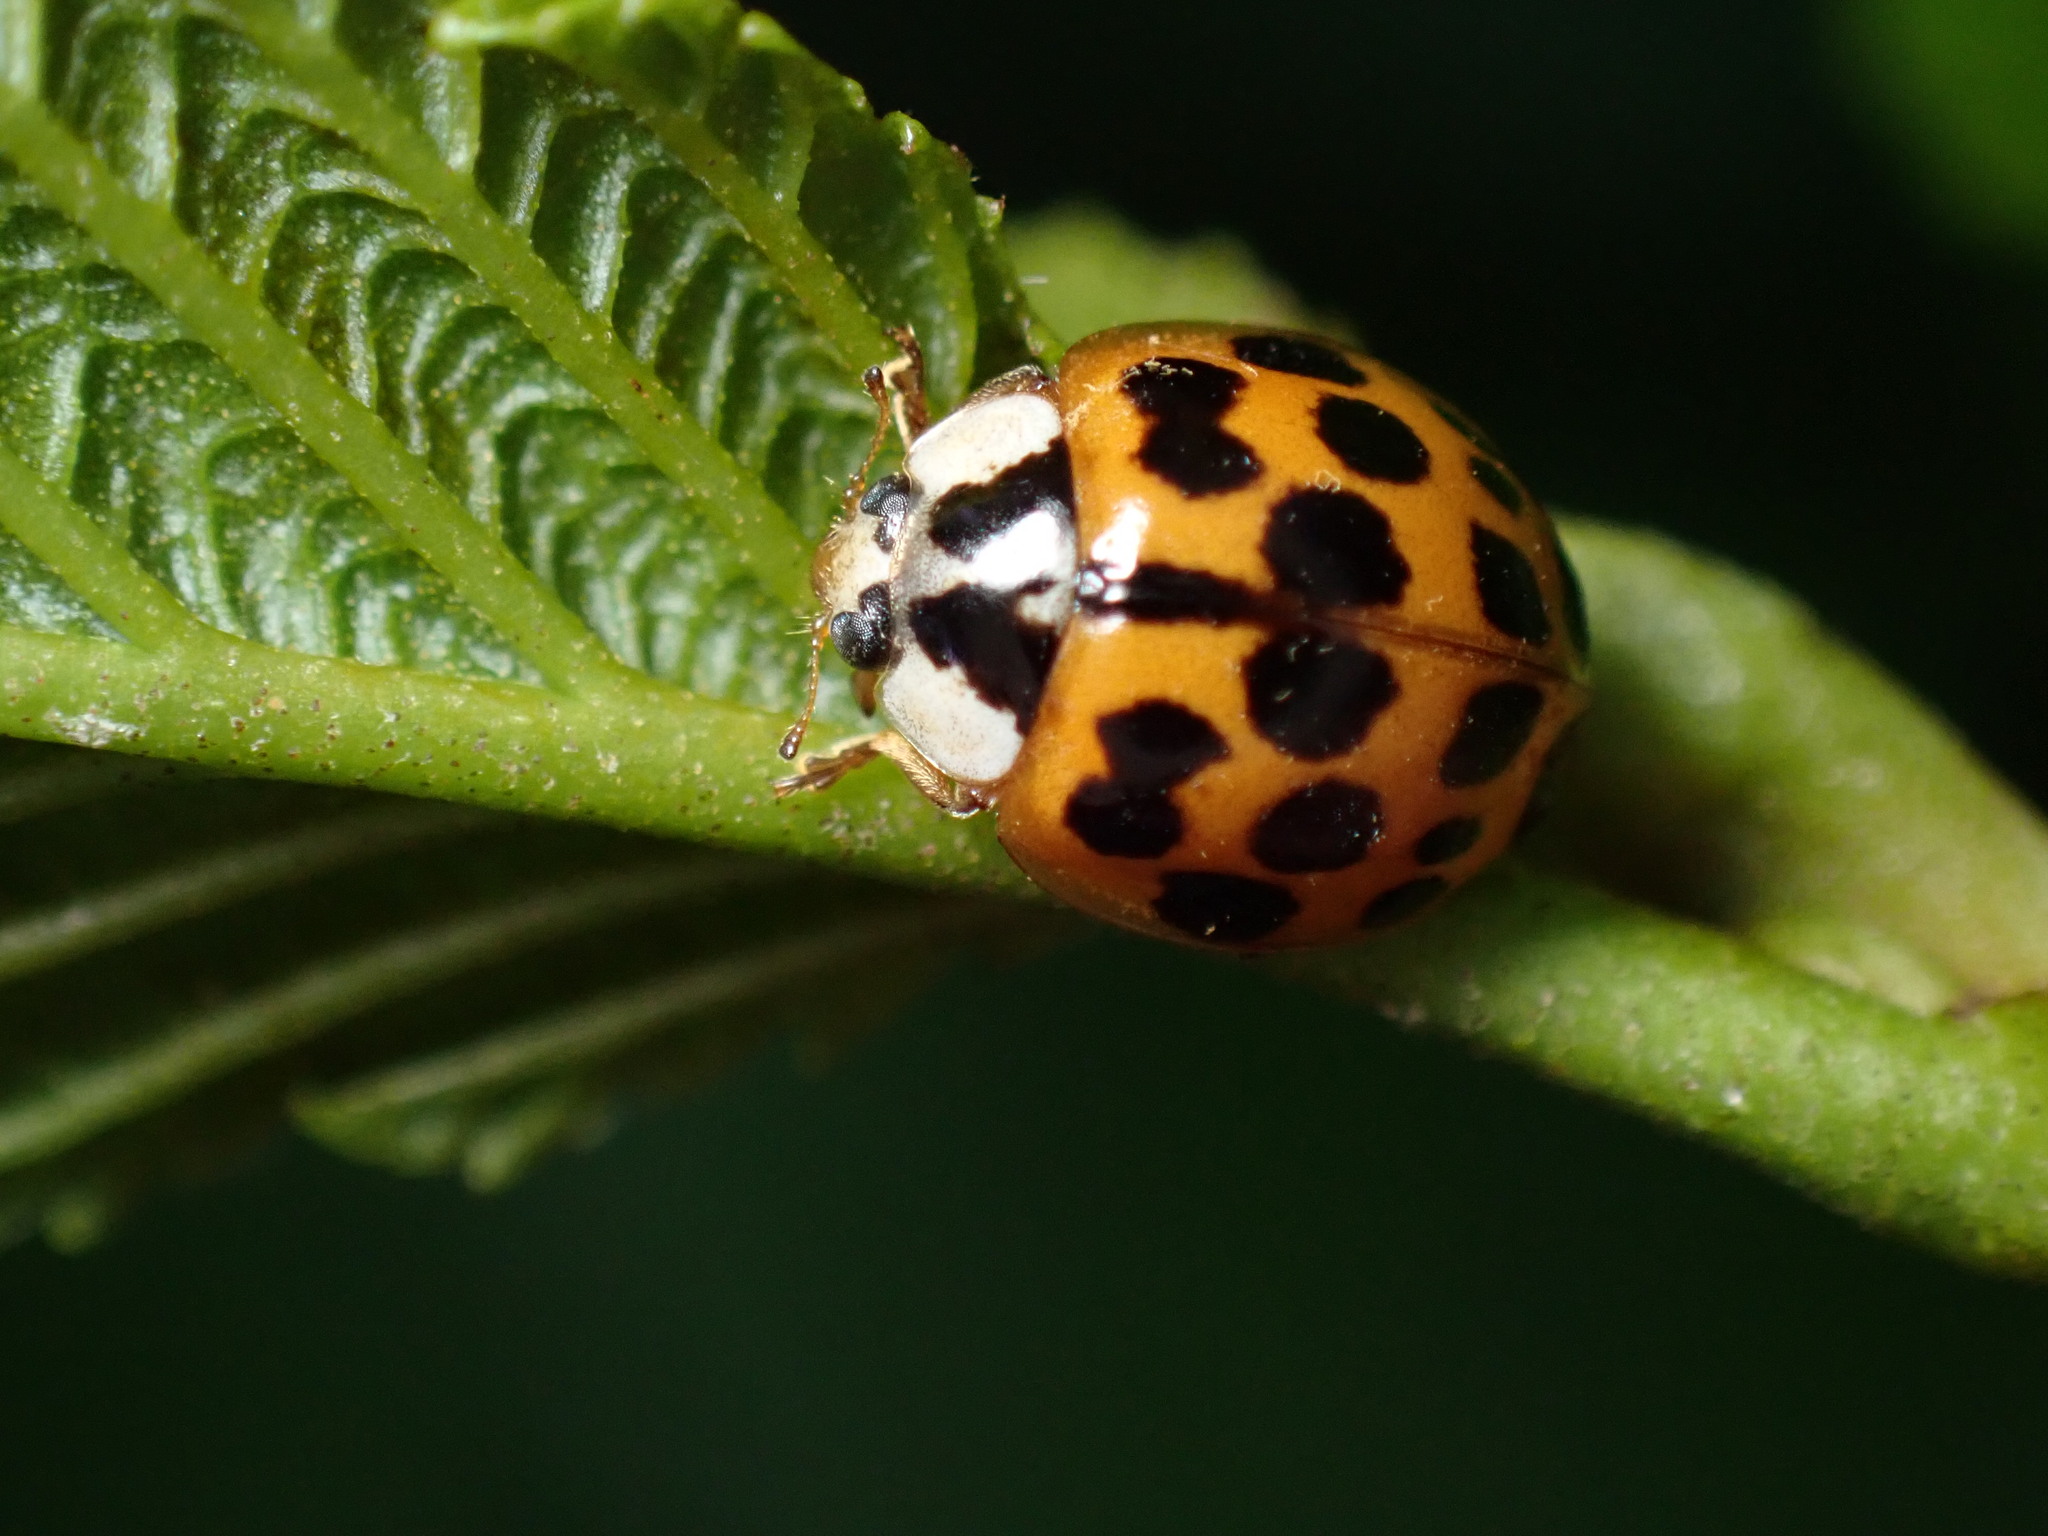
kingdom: Animalia
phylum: Arthropoda
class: Insecta
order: Coleoptera
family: Coccinellidae
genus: Harmonia
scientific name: Harmonia axyridis
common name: Harlequin ladybird
